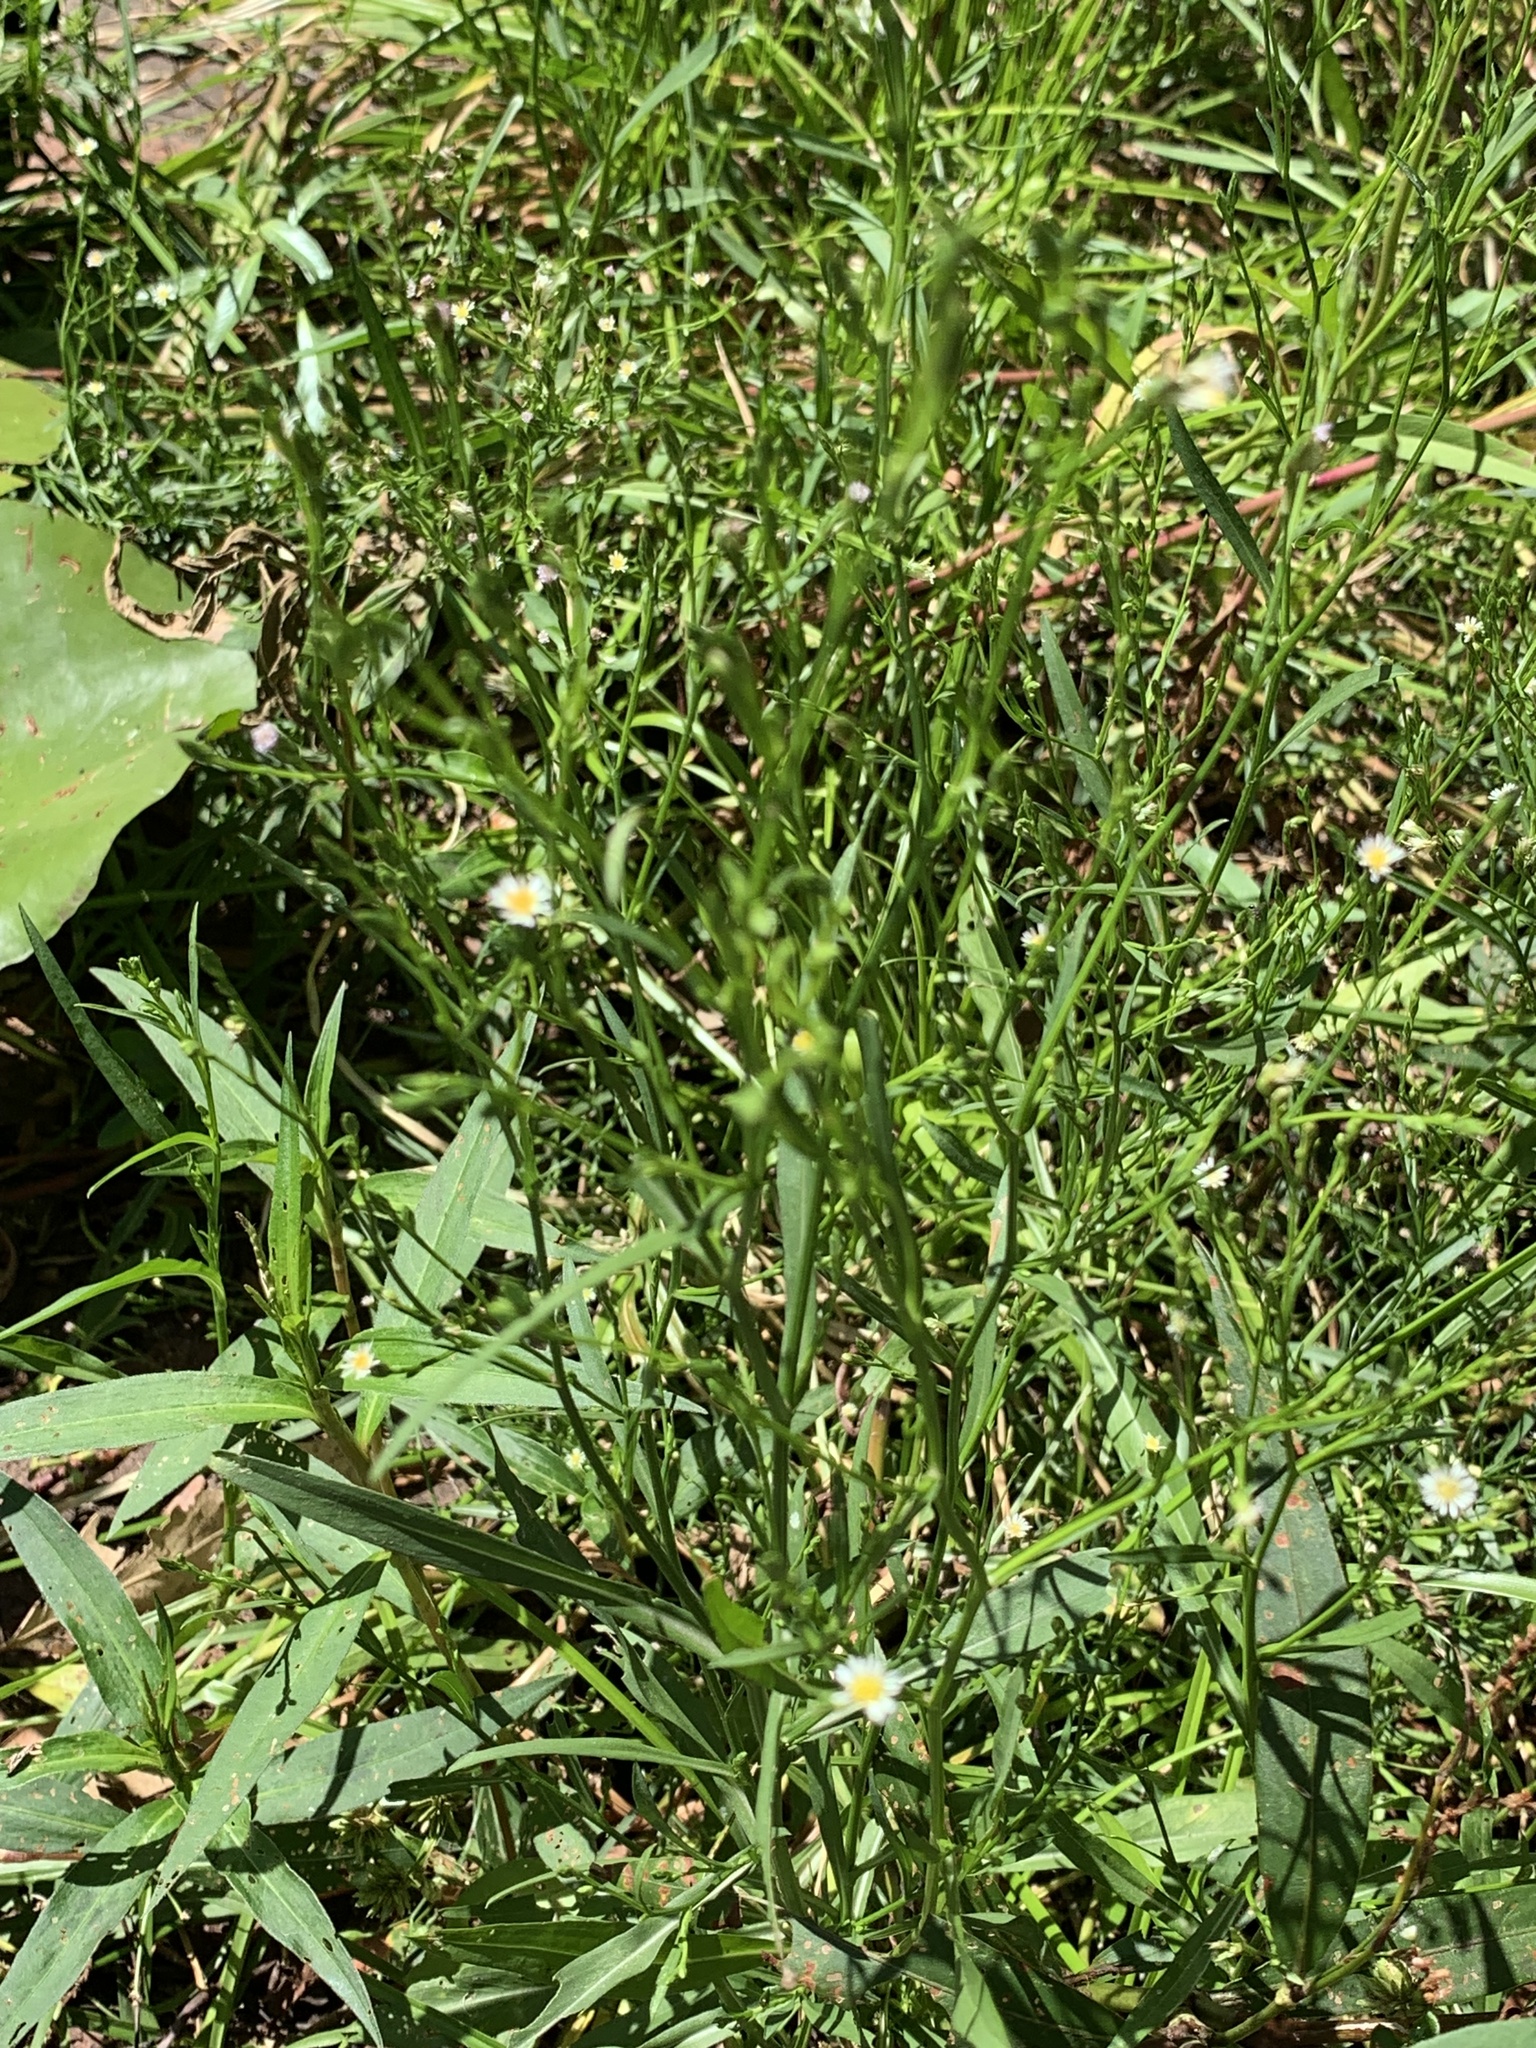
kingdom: Plantae
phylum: Tracheophyta
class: Magnoliopsida
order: Asterales
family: Asteraceae
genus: Symphyotrichum
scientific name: Symphyotrichum subulatum
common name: Annual saltmarsh aster
